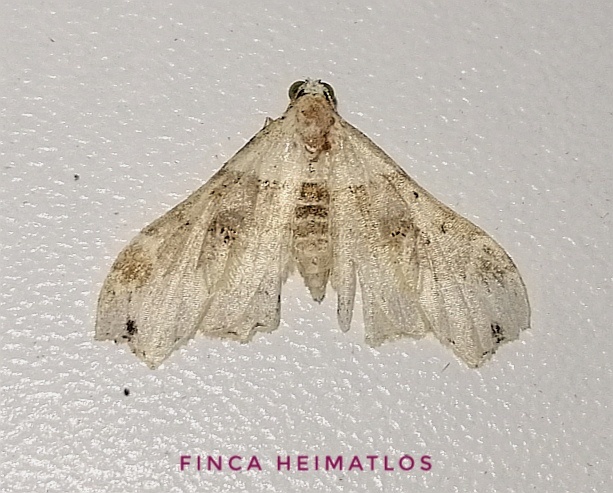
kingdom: Animalia
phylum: Arthropoda
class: Insecta
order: Lepidoptera
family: Erebidae
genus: Lascoria
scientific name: Lascoria maronialis
